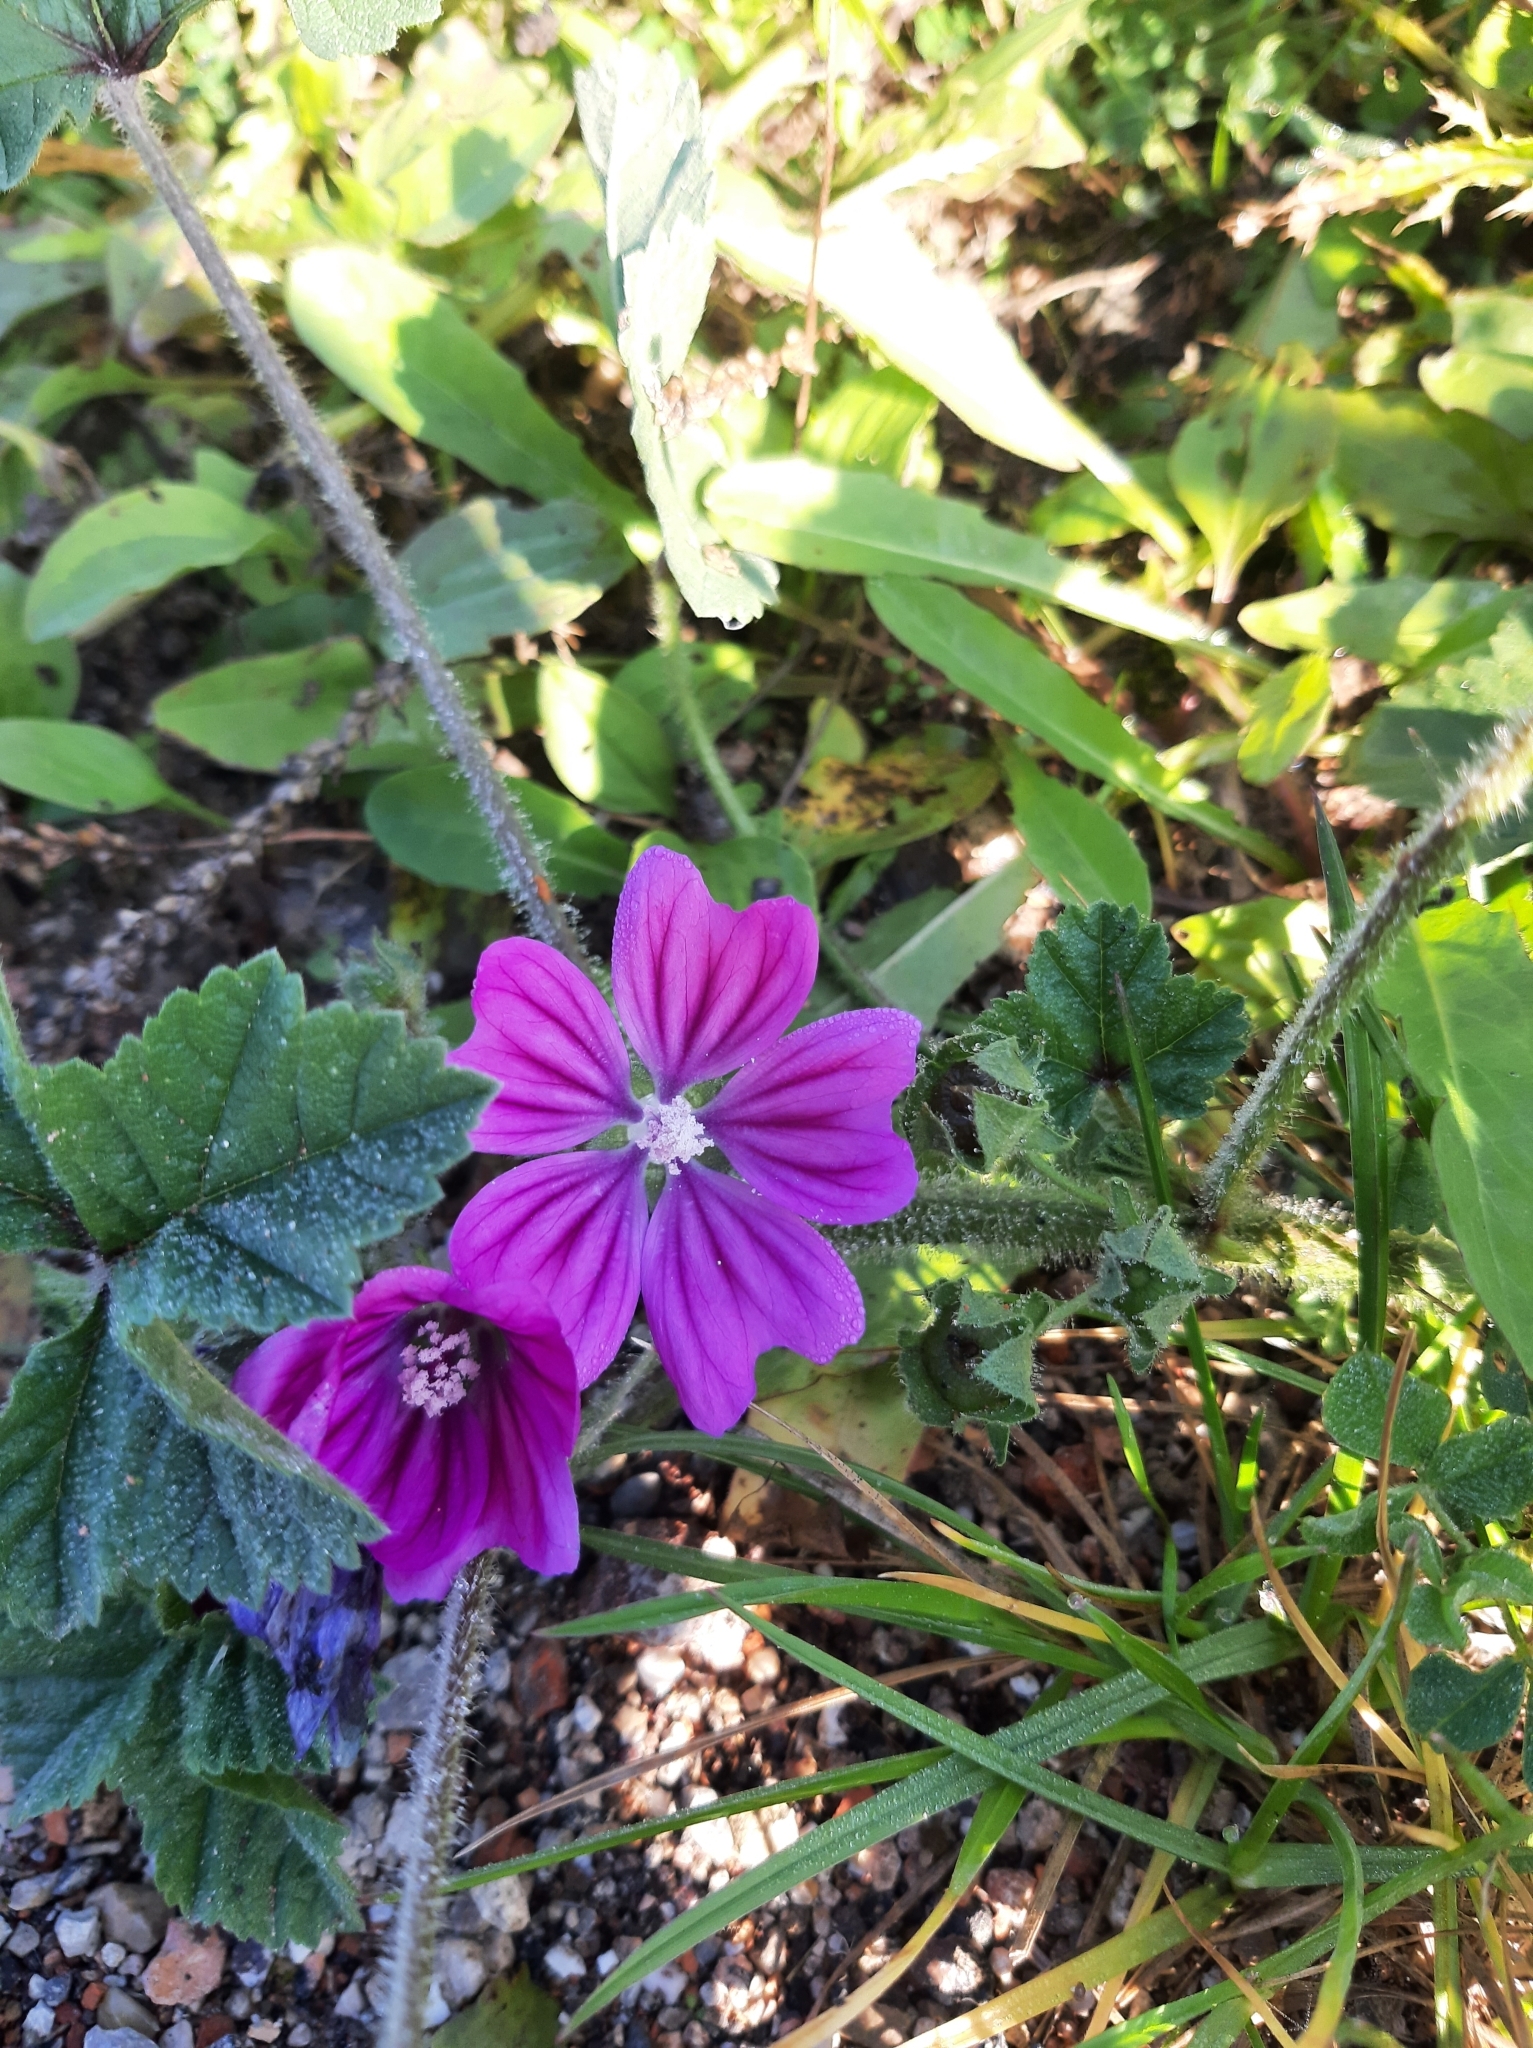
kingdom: Plantae
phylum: Tracheophyta
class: Magnoliopsida
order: Malvales
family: Malvaceae
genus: Malva
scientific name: Malva sylvestris
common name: Common mallow
